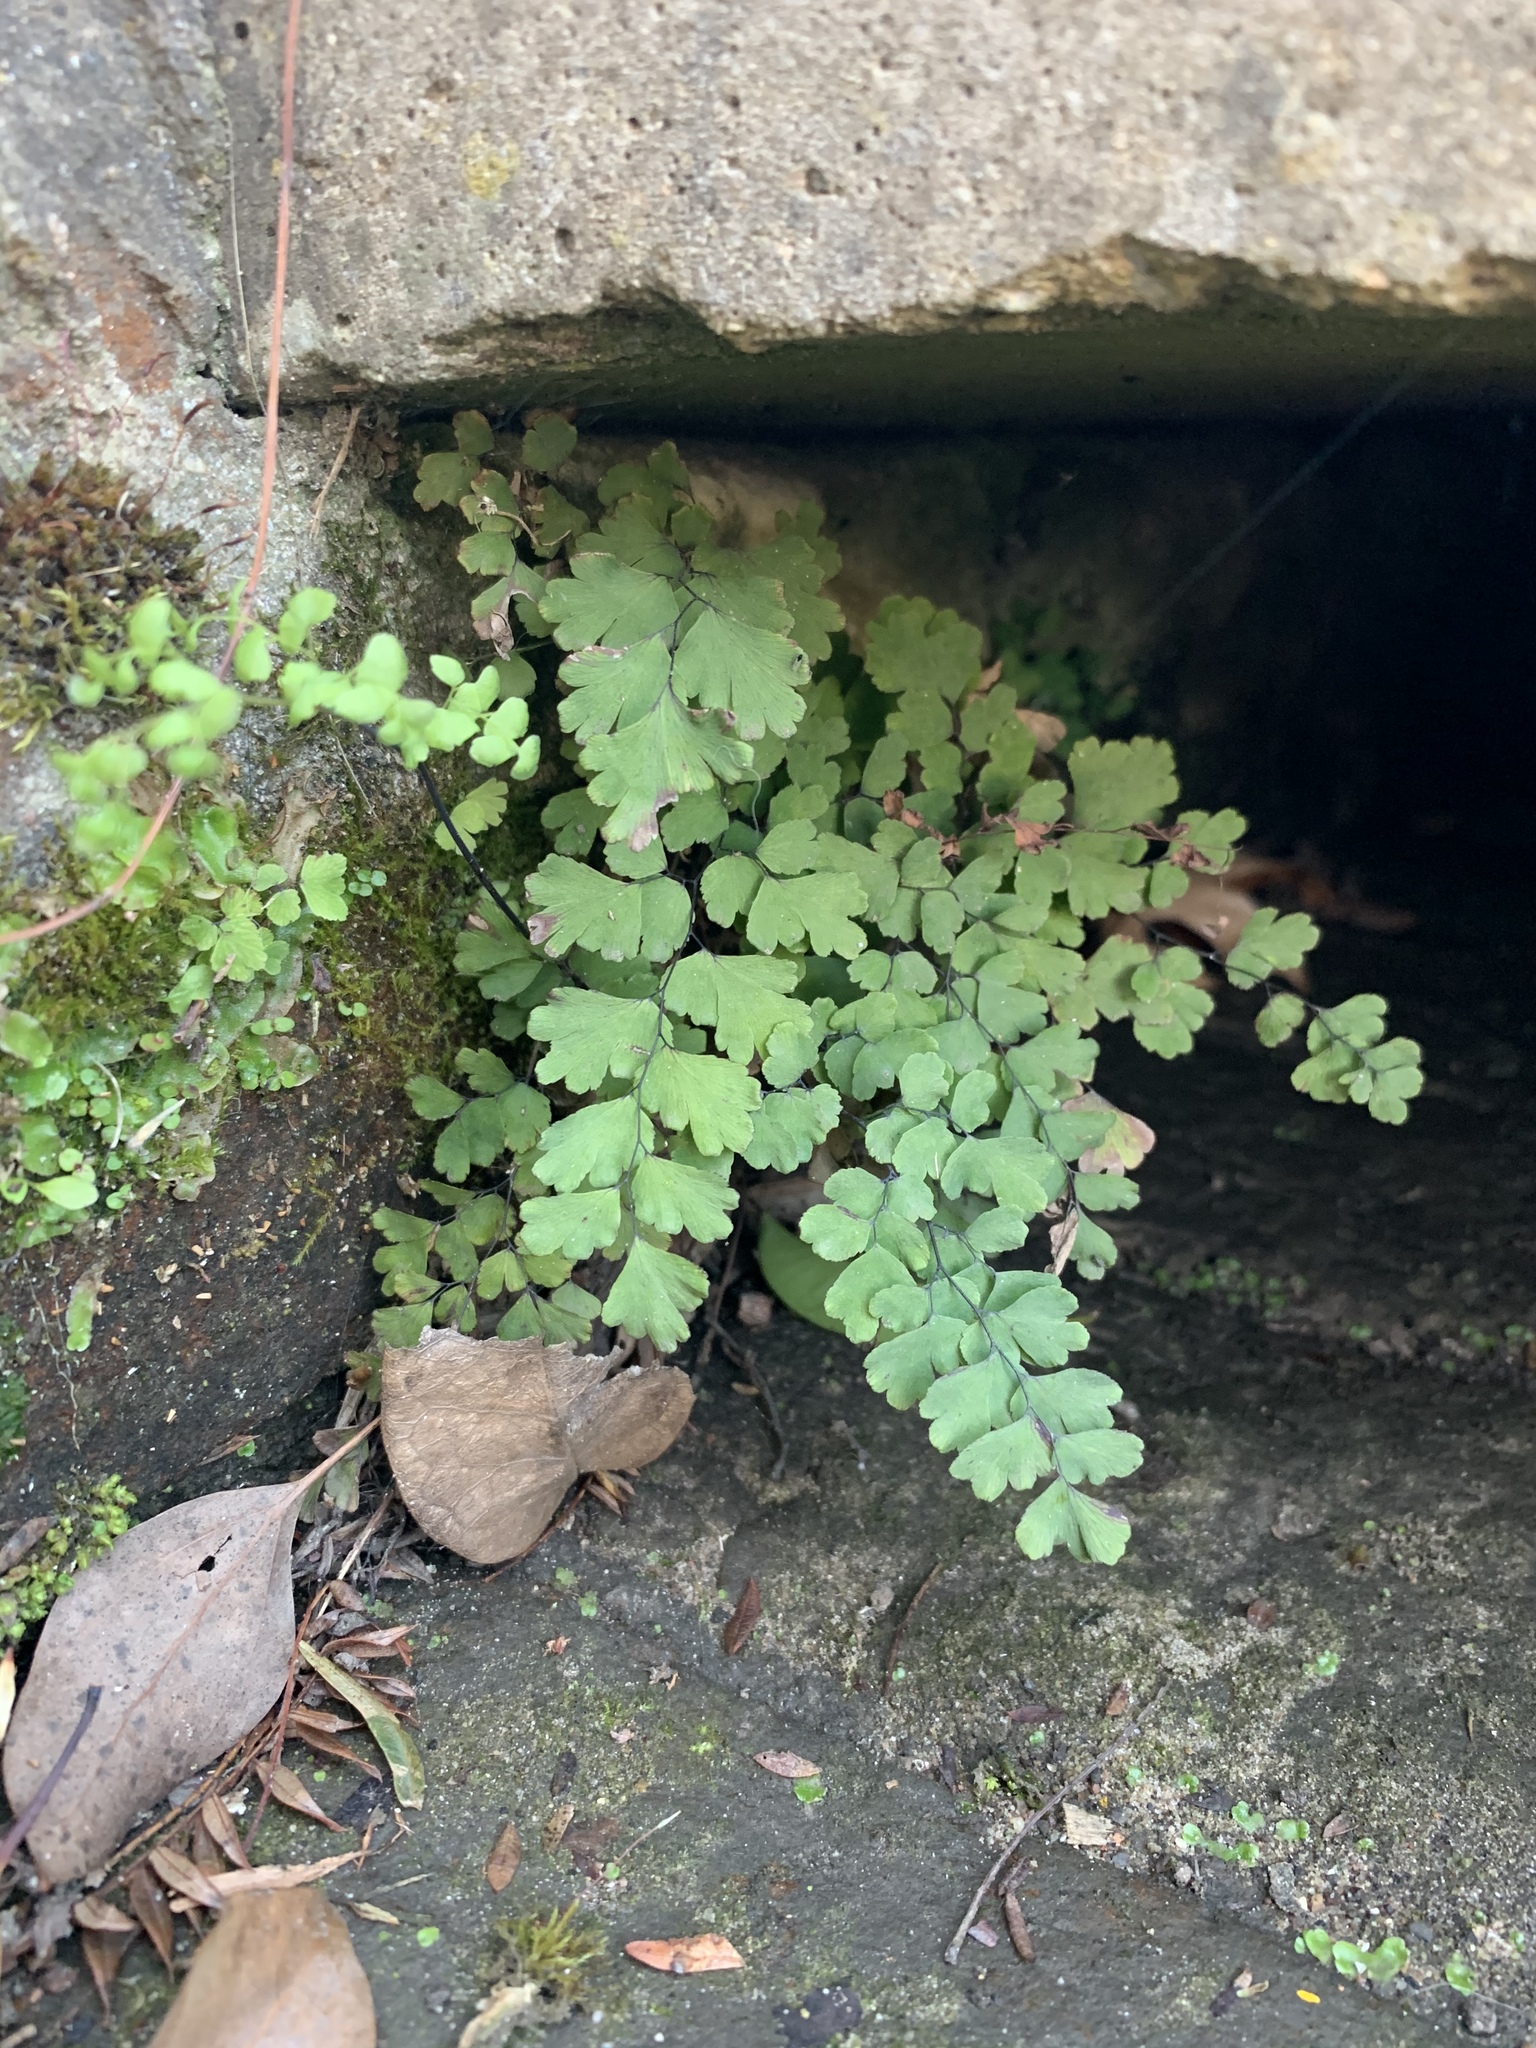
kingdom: Plantae
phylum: Tracheophyta
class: Polypodiopsida
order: Polypodiales
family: Pteridaceae
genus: Adiantum
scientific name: Adiantum capillus-veneris
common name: Maidenhair fern
